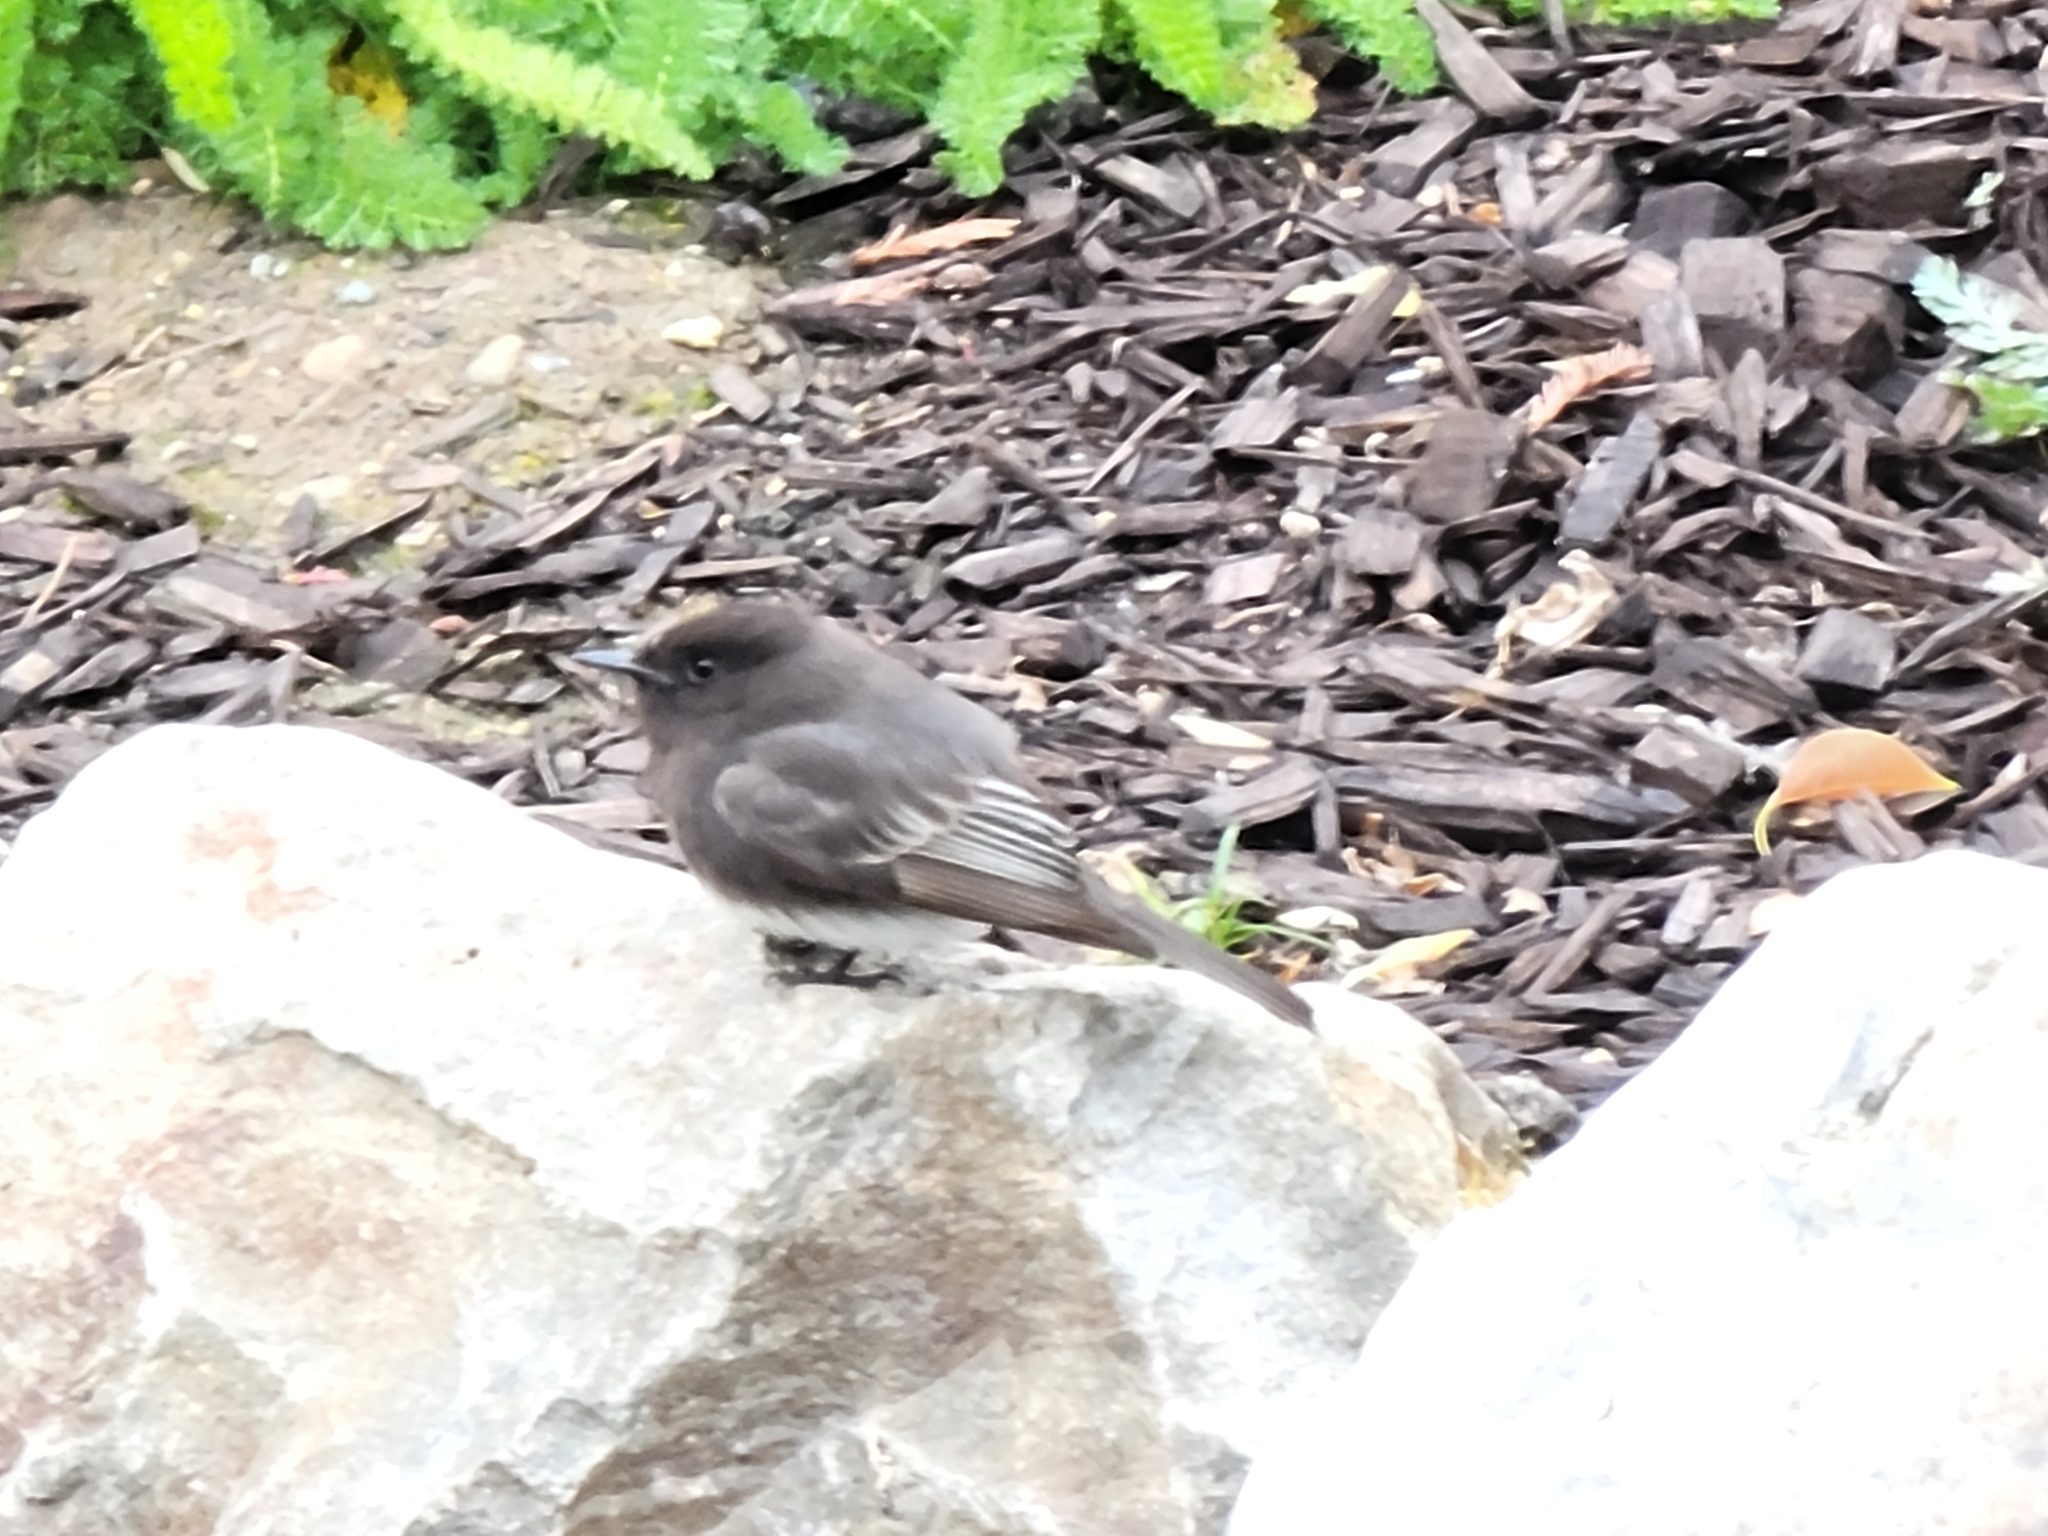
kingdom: Animalia
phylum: Chordata
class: Aves
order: Passeriformes
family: Tyrannidae
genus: Sayornis
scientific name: Sayornis nigricans
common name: Black phoebe
